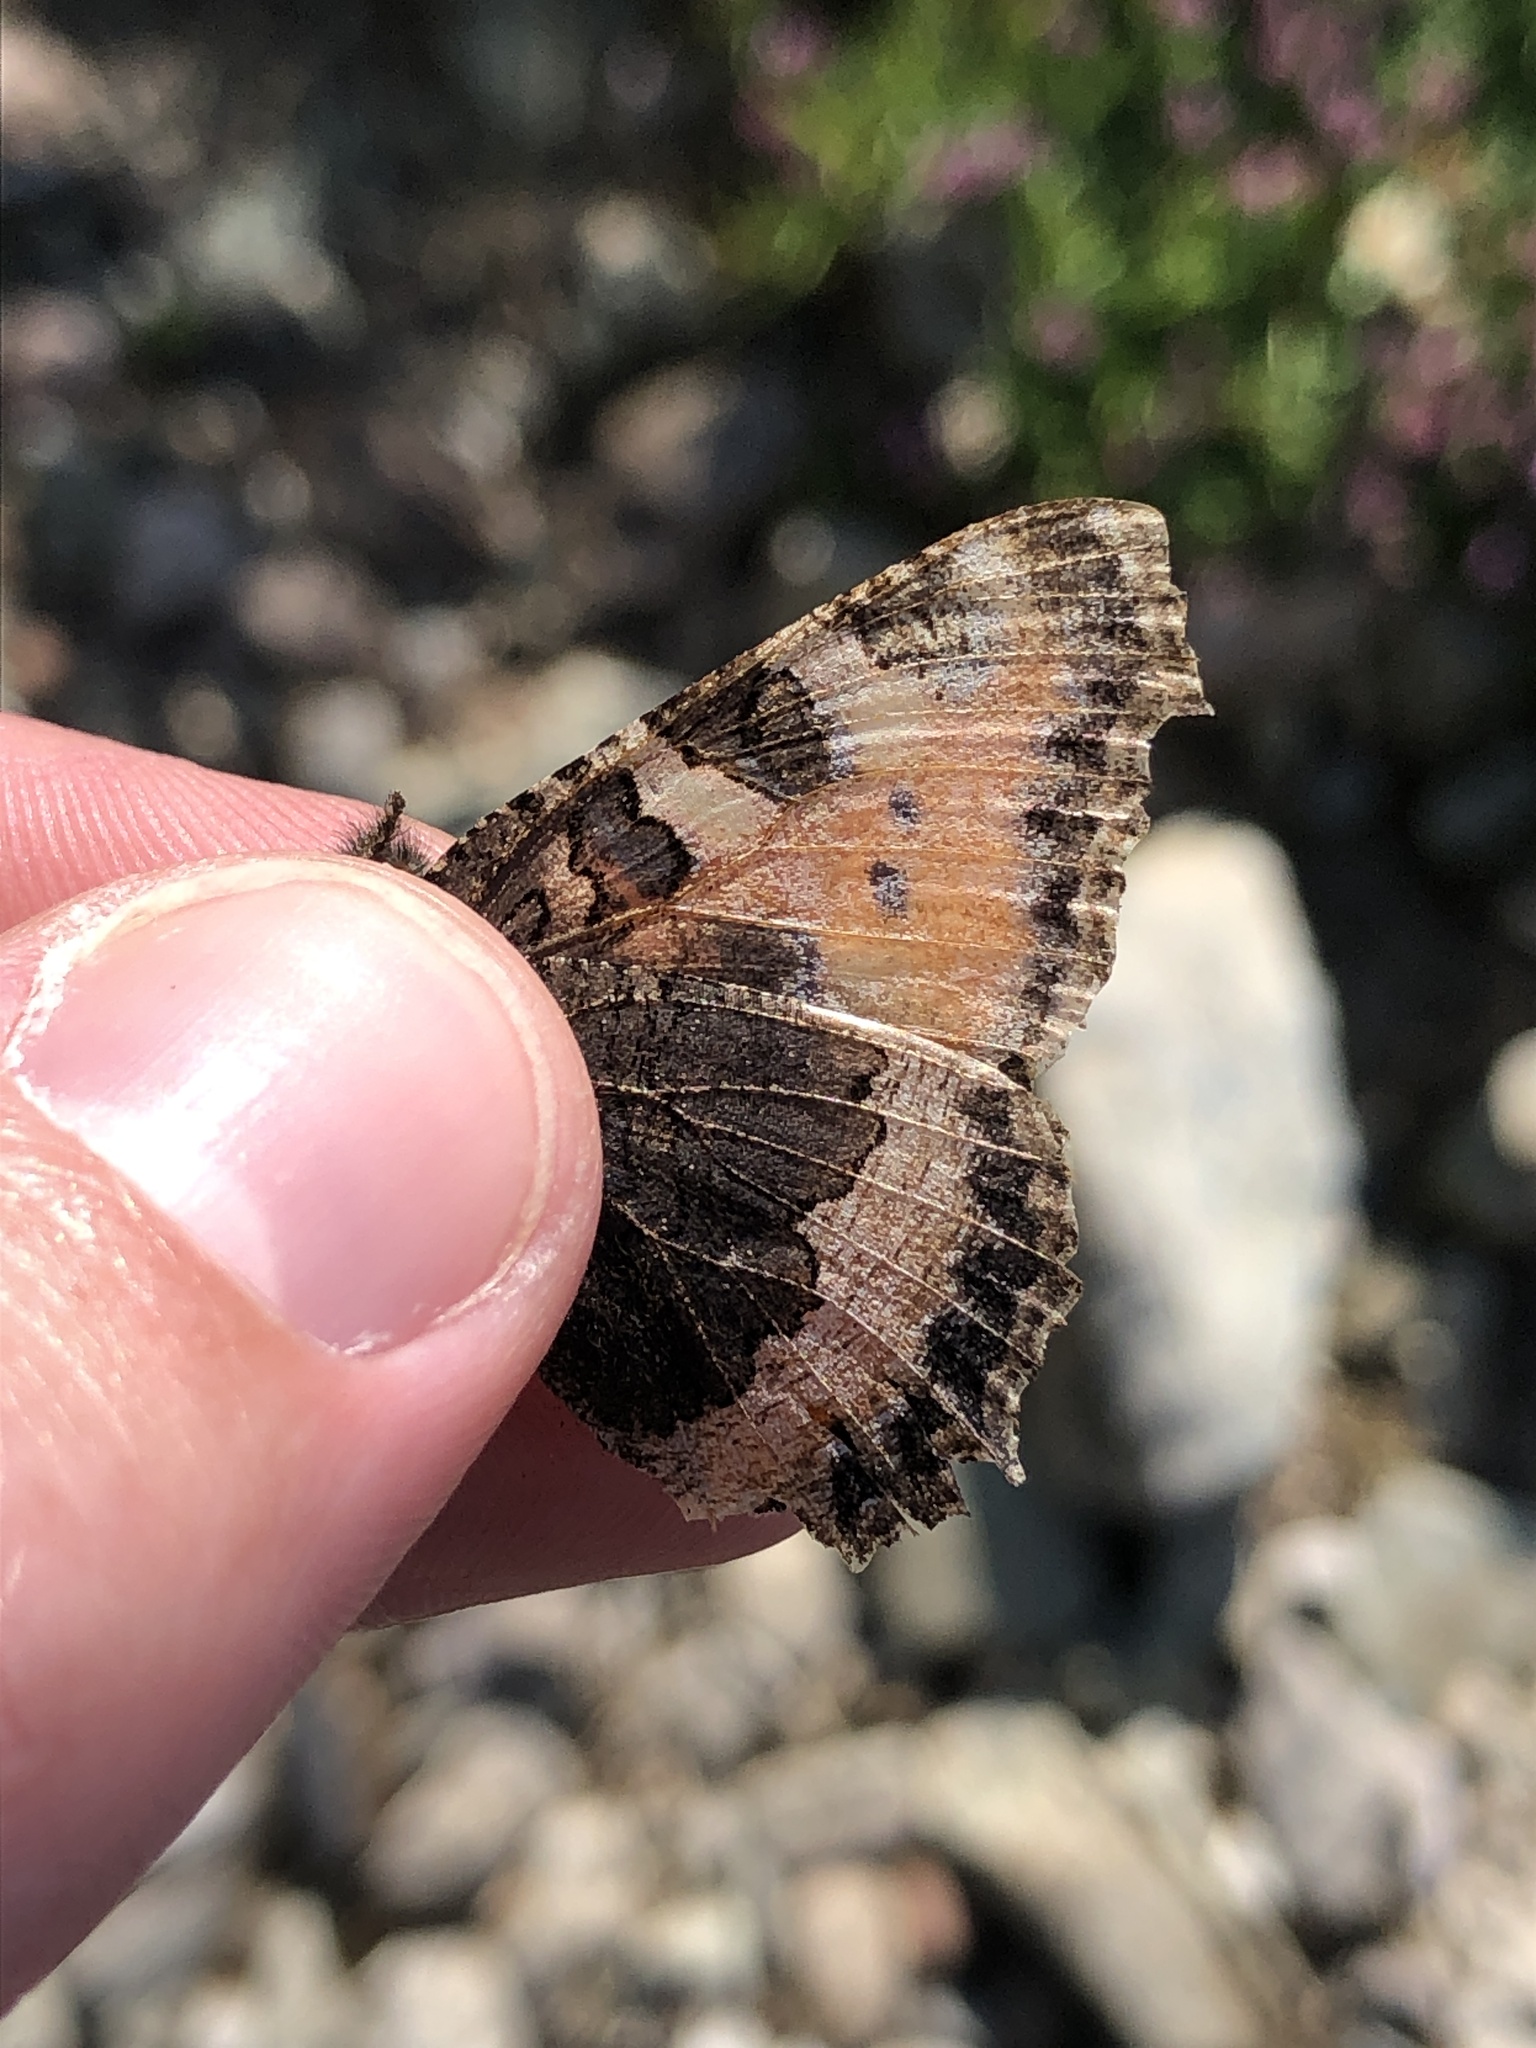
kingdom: Animalia
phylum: Arthropoda
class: Insecta
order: Lepidoptera
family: Nymphalidae
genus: Aglais
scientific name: Aglais urticae
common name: Small tortoiseshell
